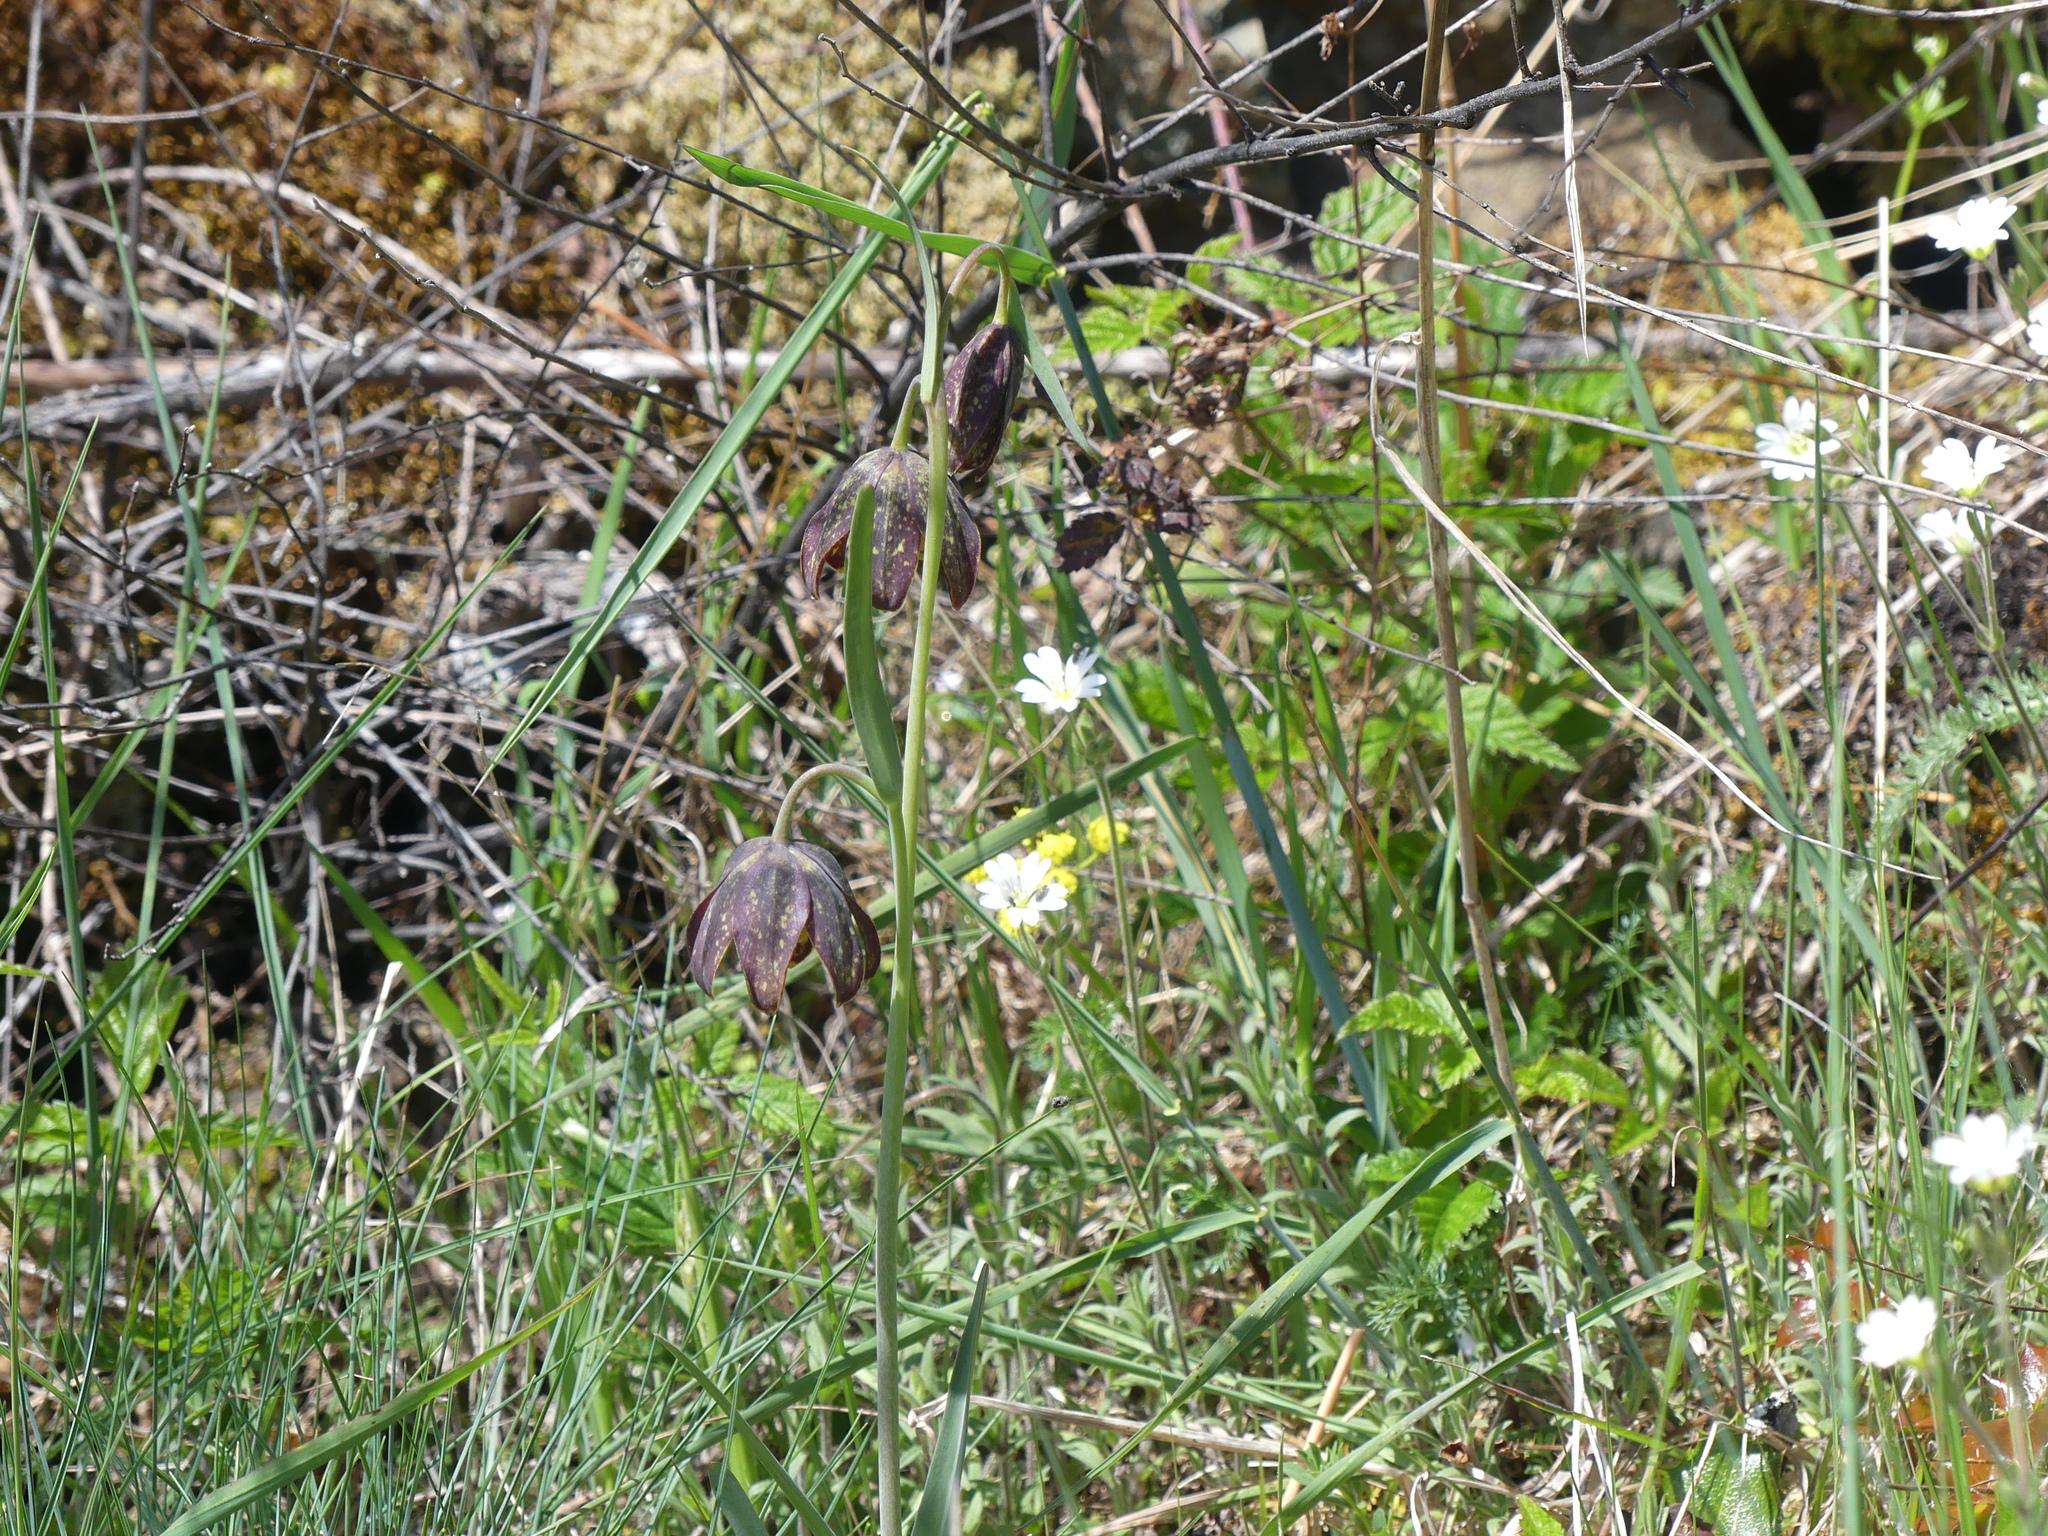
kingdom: Plantae
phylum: Tracheophyta
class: Liliopsida
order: Liliales
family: Liliaceae
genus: Fritillaria
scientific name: Fritillaria affinis
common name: Ojai fritillary
